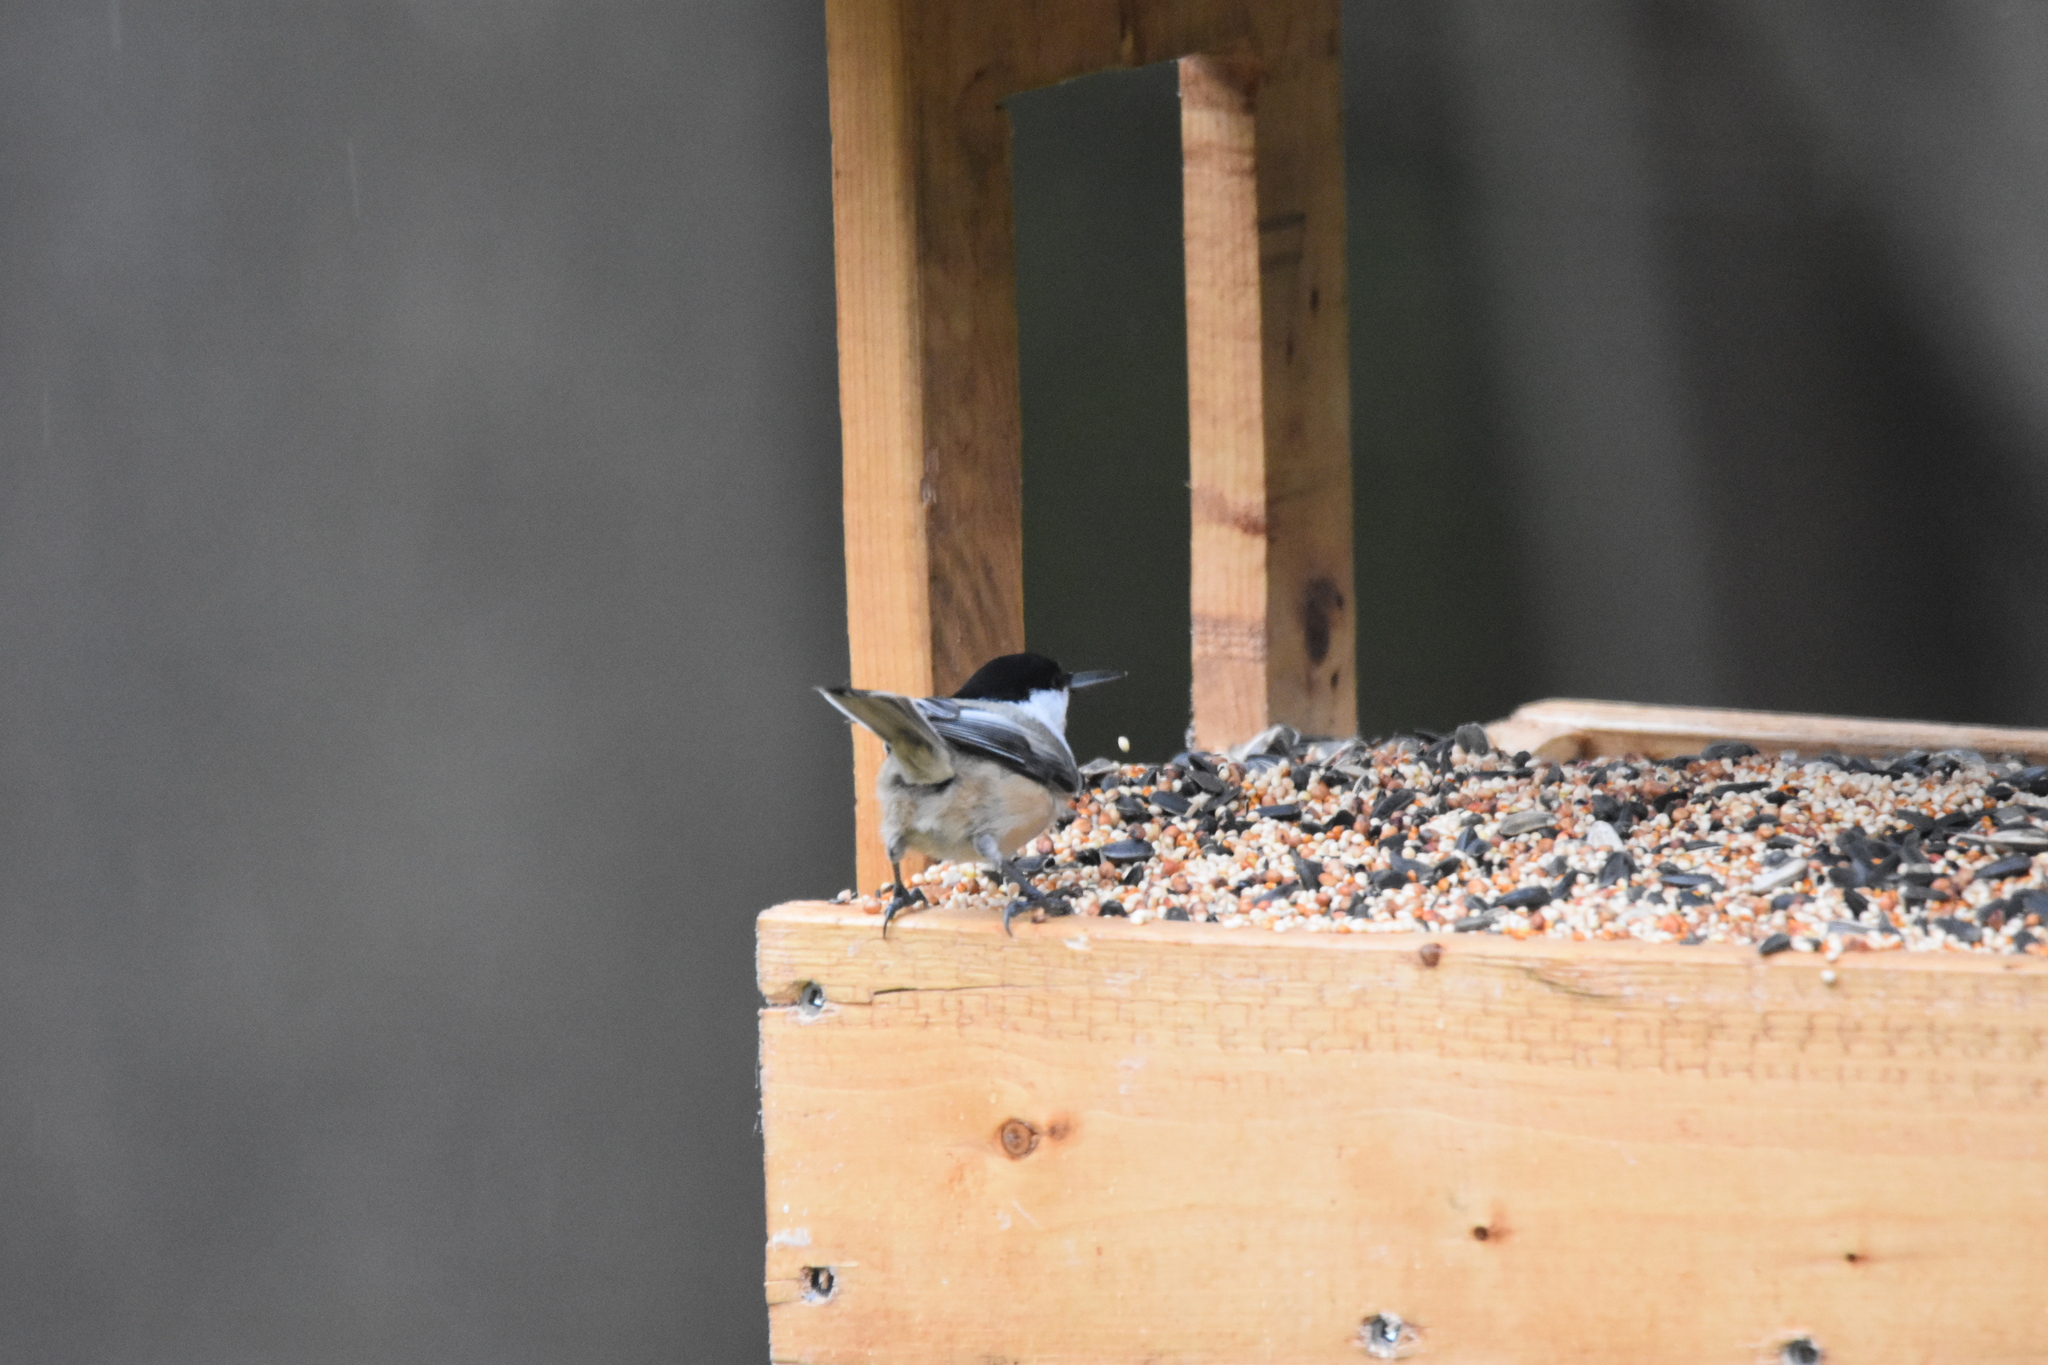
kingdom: Animalia
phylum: Chordata
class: Aves
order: Passeriformes
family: Paridae
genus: Poecile
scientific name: Poecile atricapillus
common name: Black-capped chickadee
